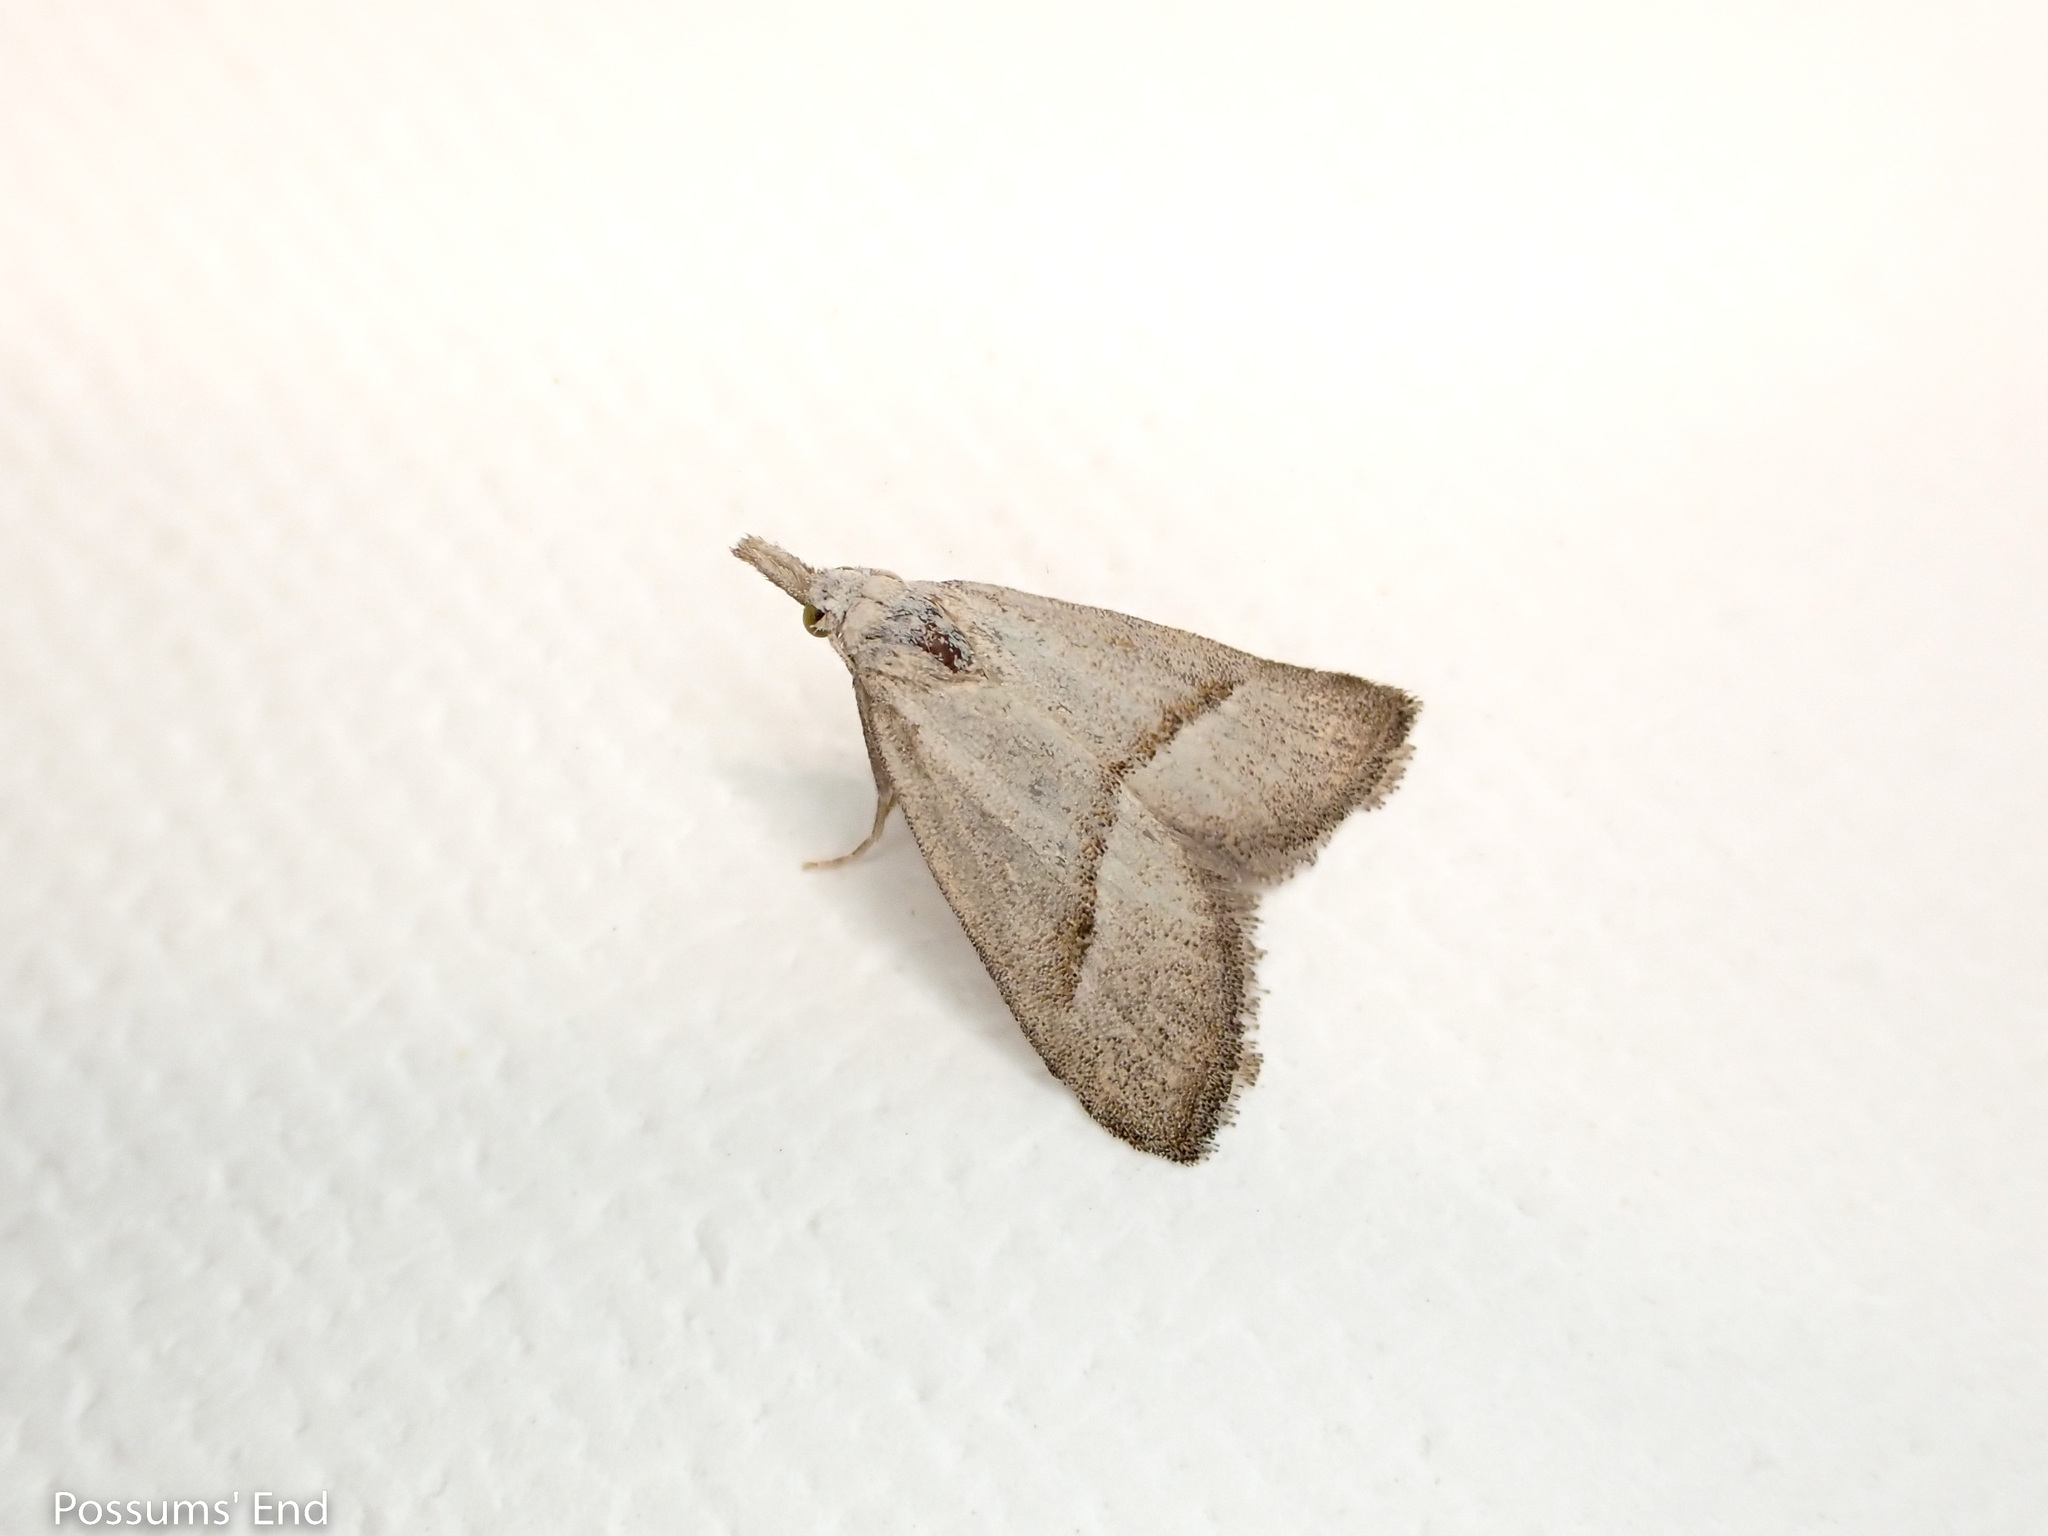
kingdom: Animalia
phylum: Arthropoda
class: Insecta
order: Lepidoptera
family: Nolidae
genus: Nola
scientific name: Nola parvitis
